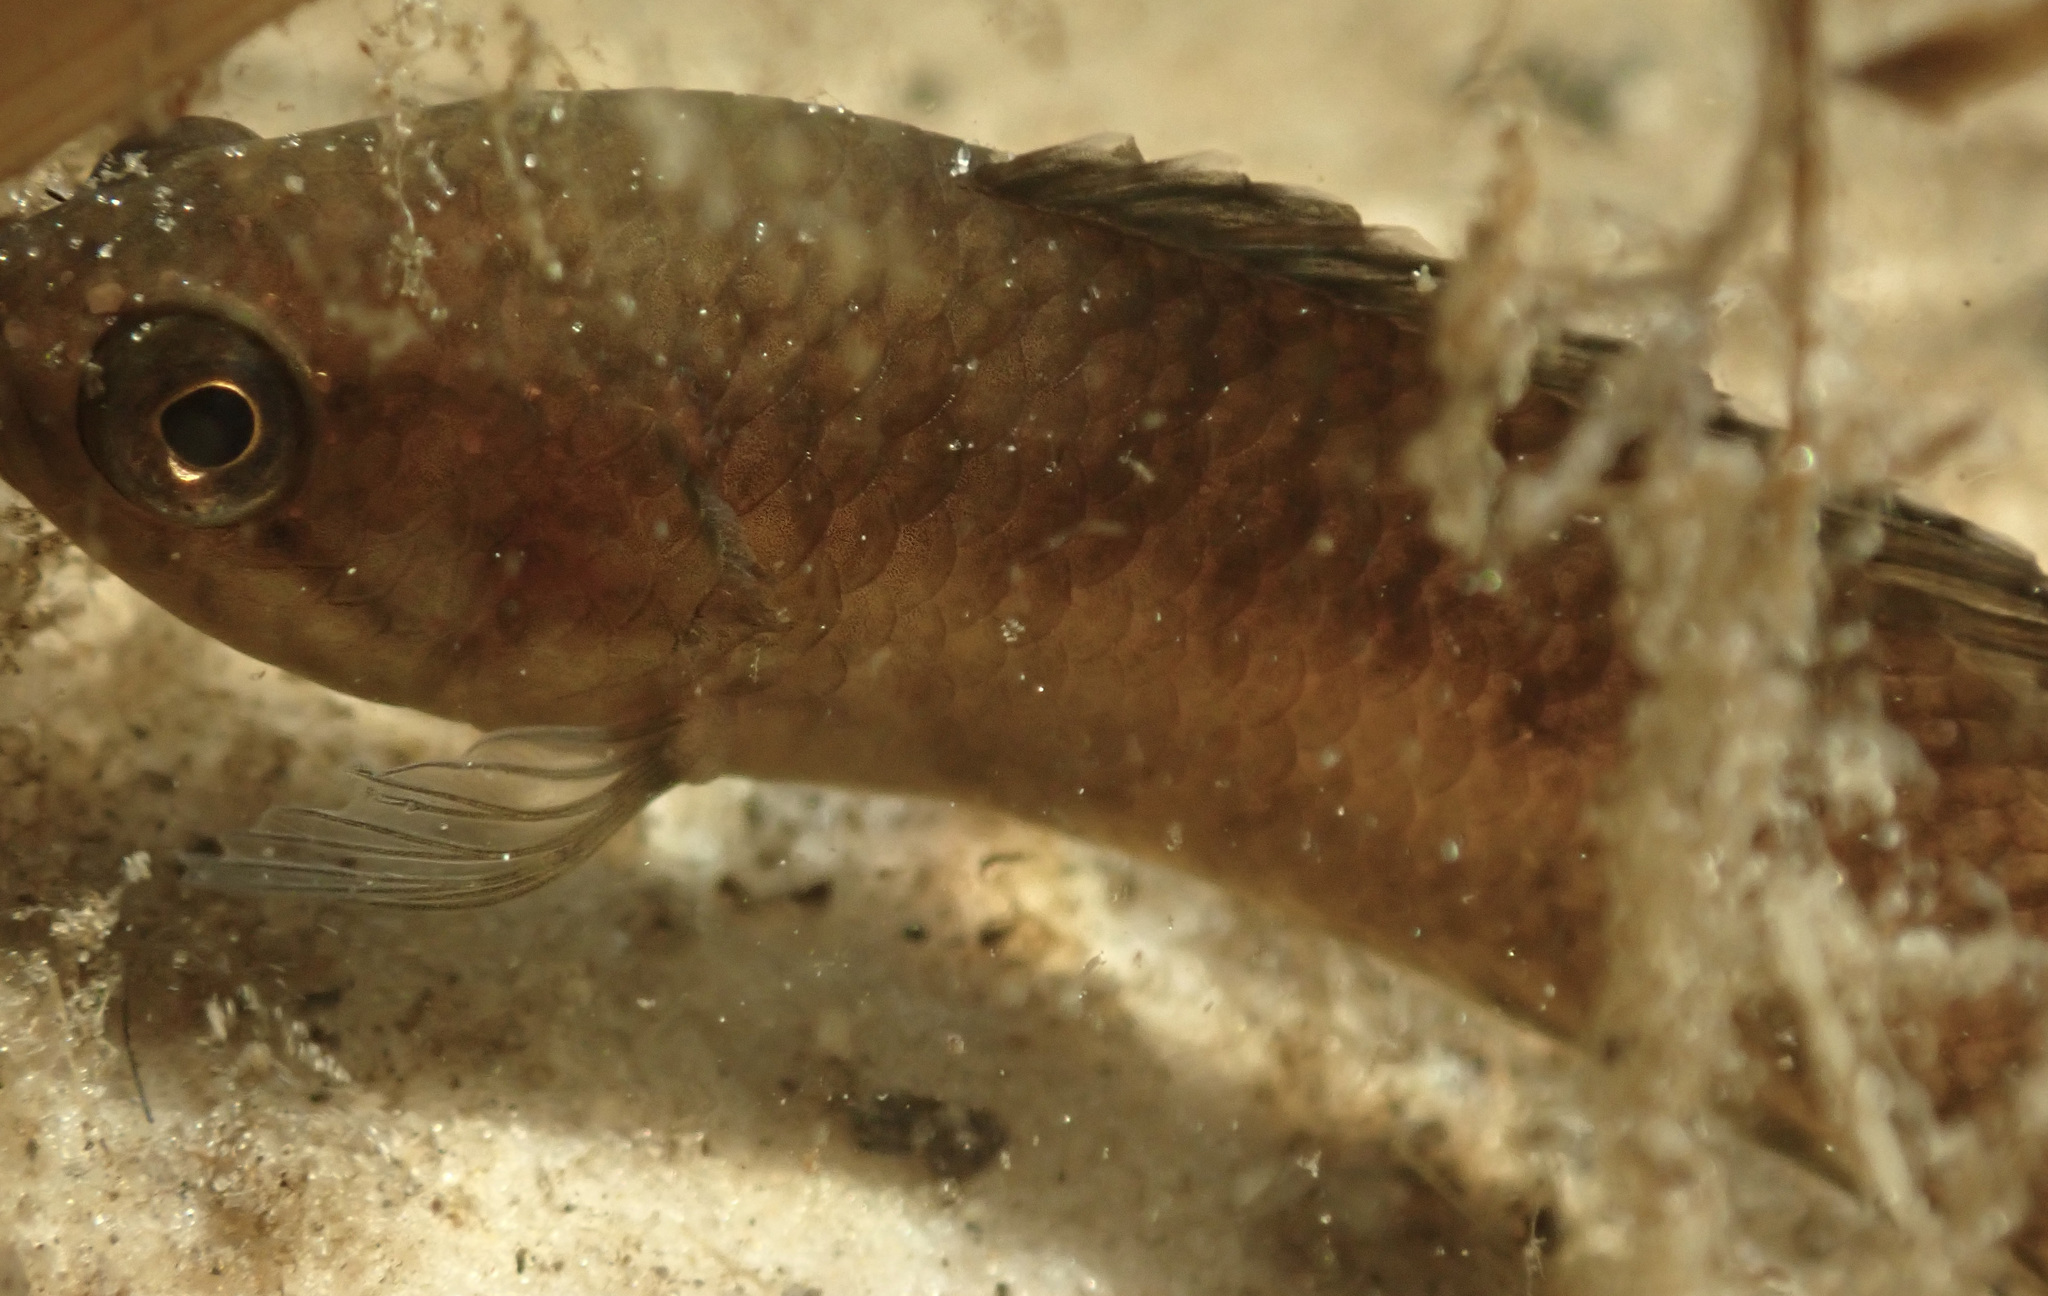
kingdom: Animalia
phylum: Chordata
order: Perciformes
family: Anabantidae
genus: Microctenopoma
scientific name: Microctenopoma intermedium
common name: Blackspot climbing perch
